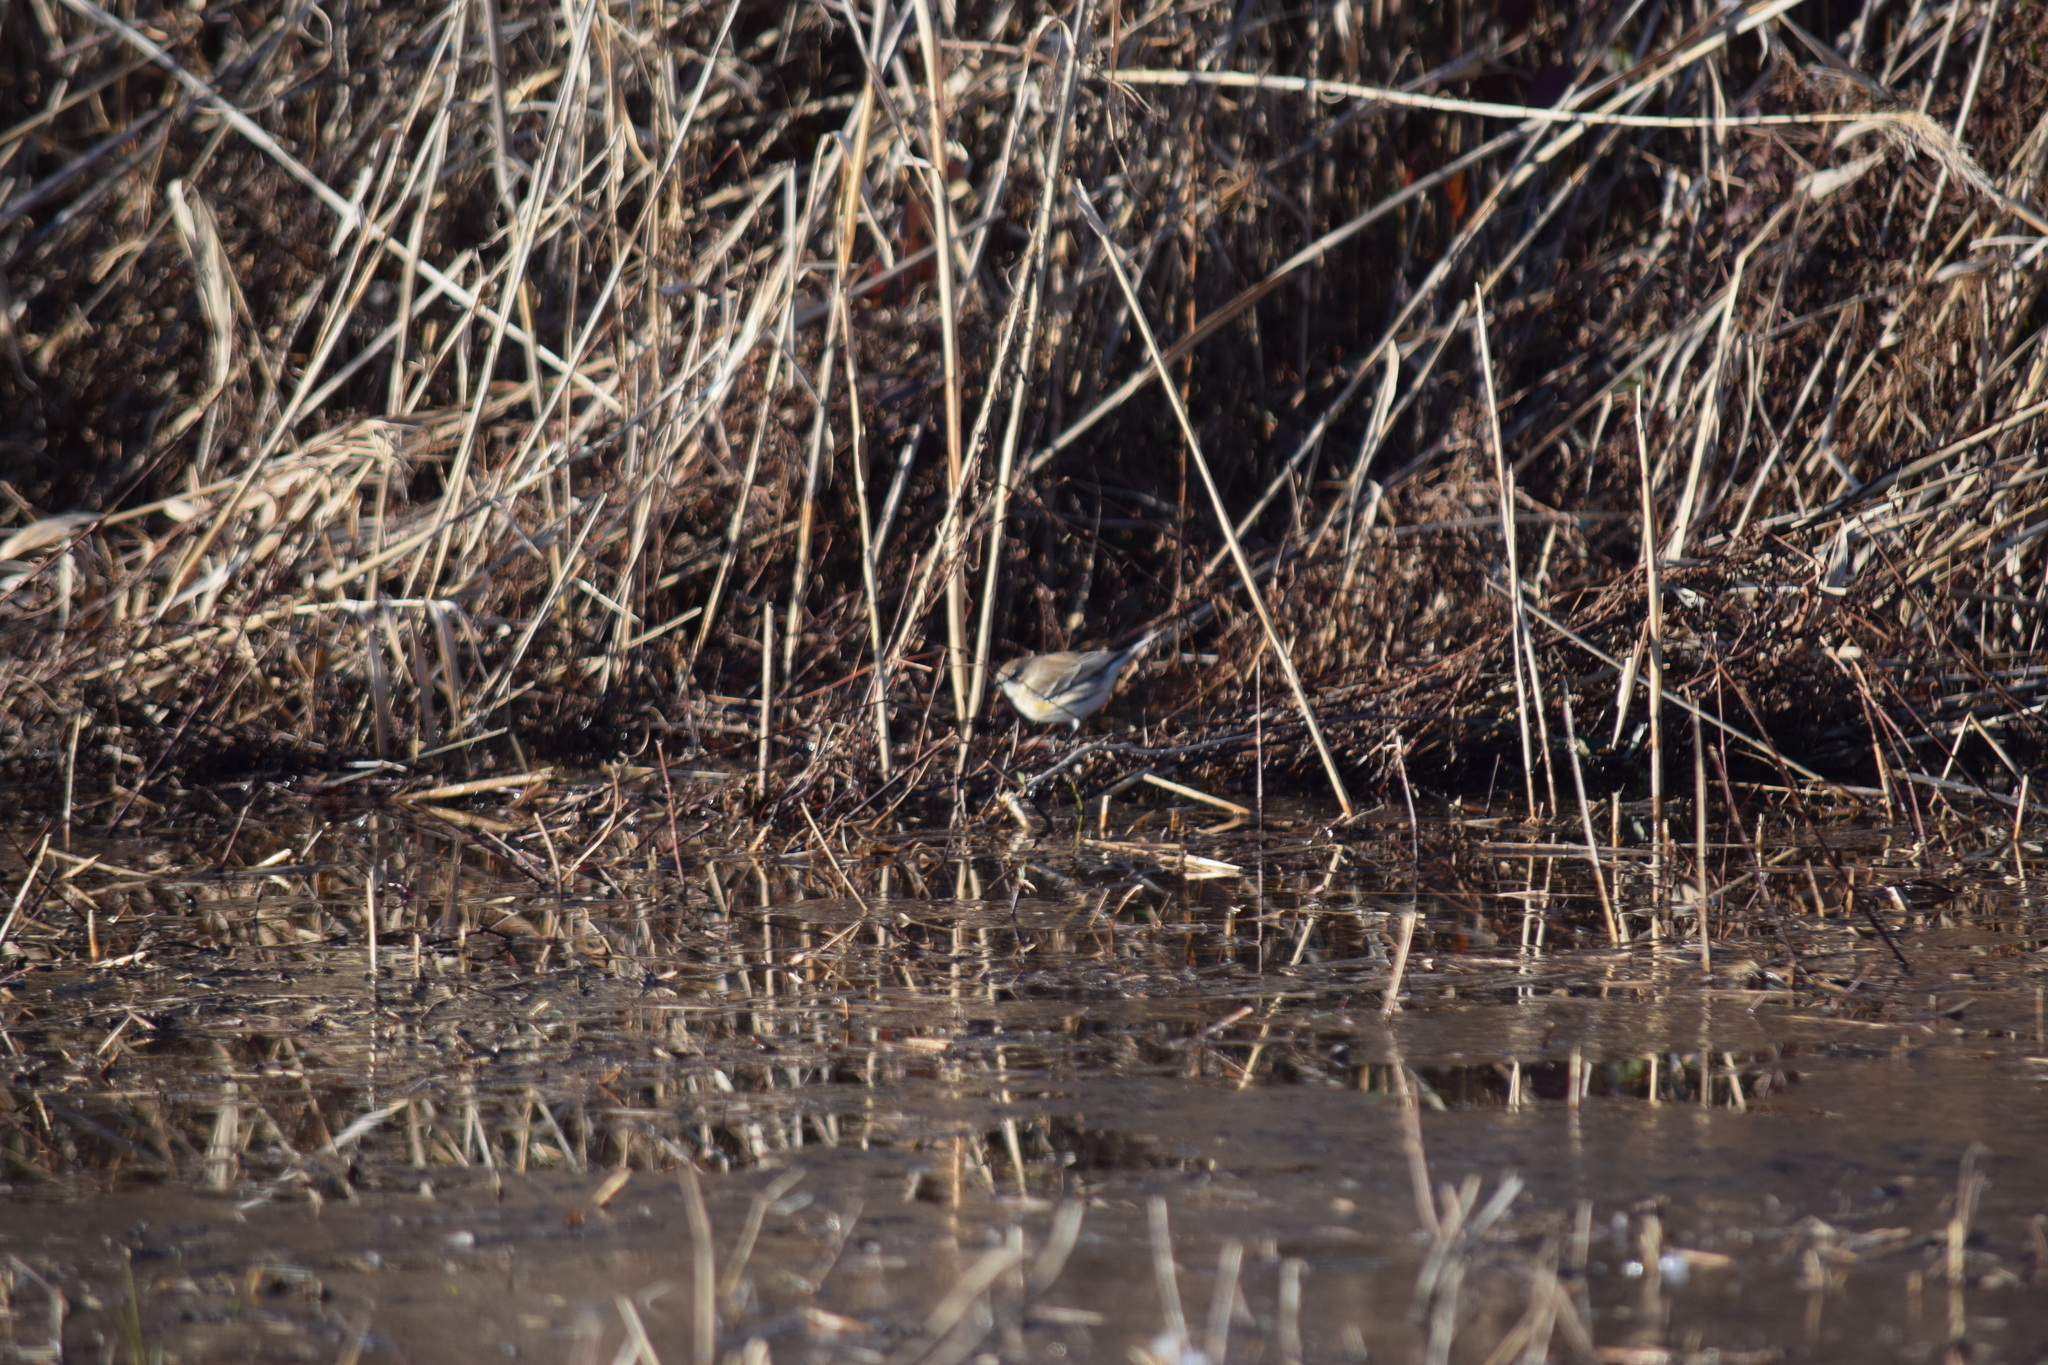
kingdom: Animalia
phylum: Chordata
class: Aves
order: Passeriformes
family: Parulidae
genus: Setophaga
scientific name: Setophaga coronata
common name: Myrtle warbler
